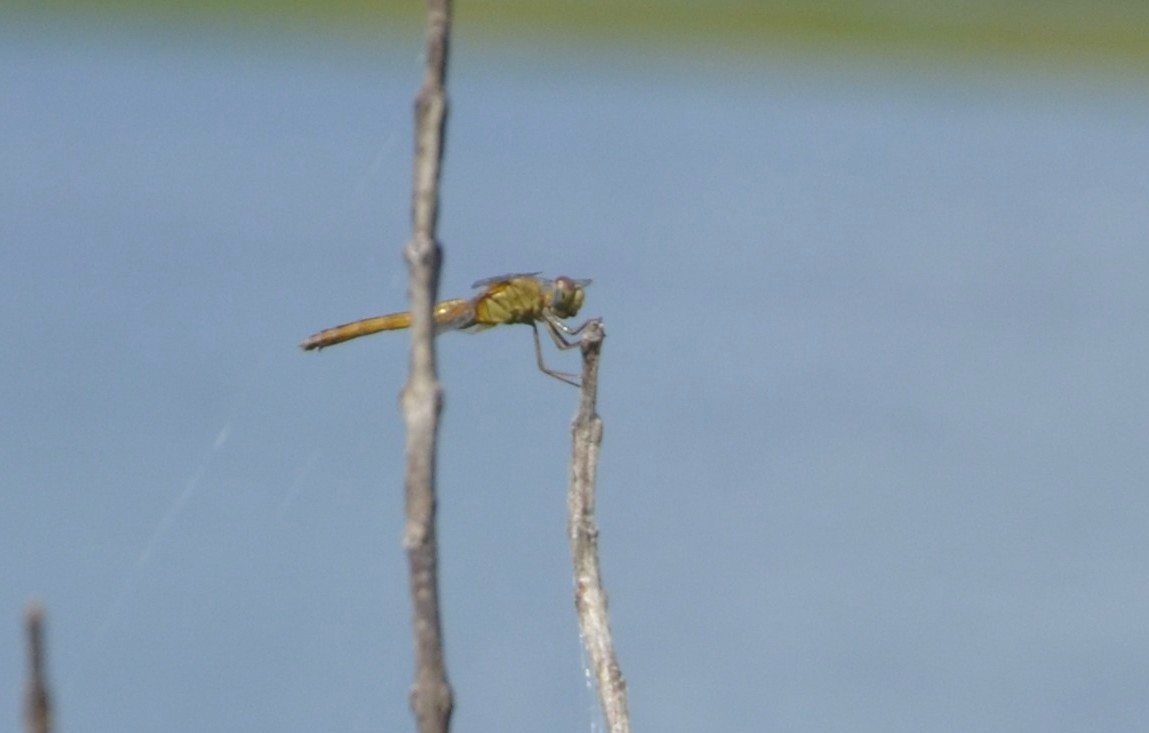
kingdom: Animalia
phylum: Arthropoda
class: Insecta
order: Odonata
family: Libellulidae
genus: Crocothemis
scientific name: Crocothemis servilia
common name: Scarlet skimmer
